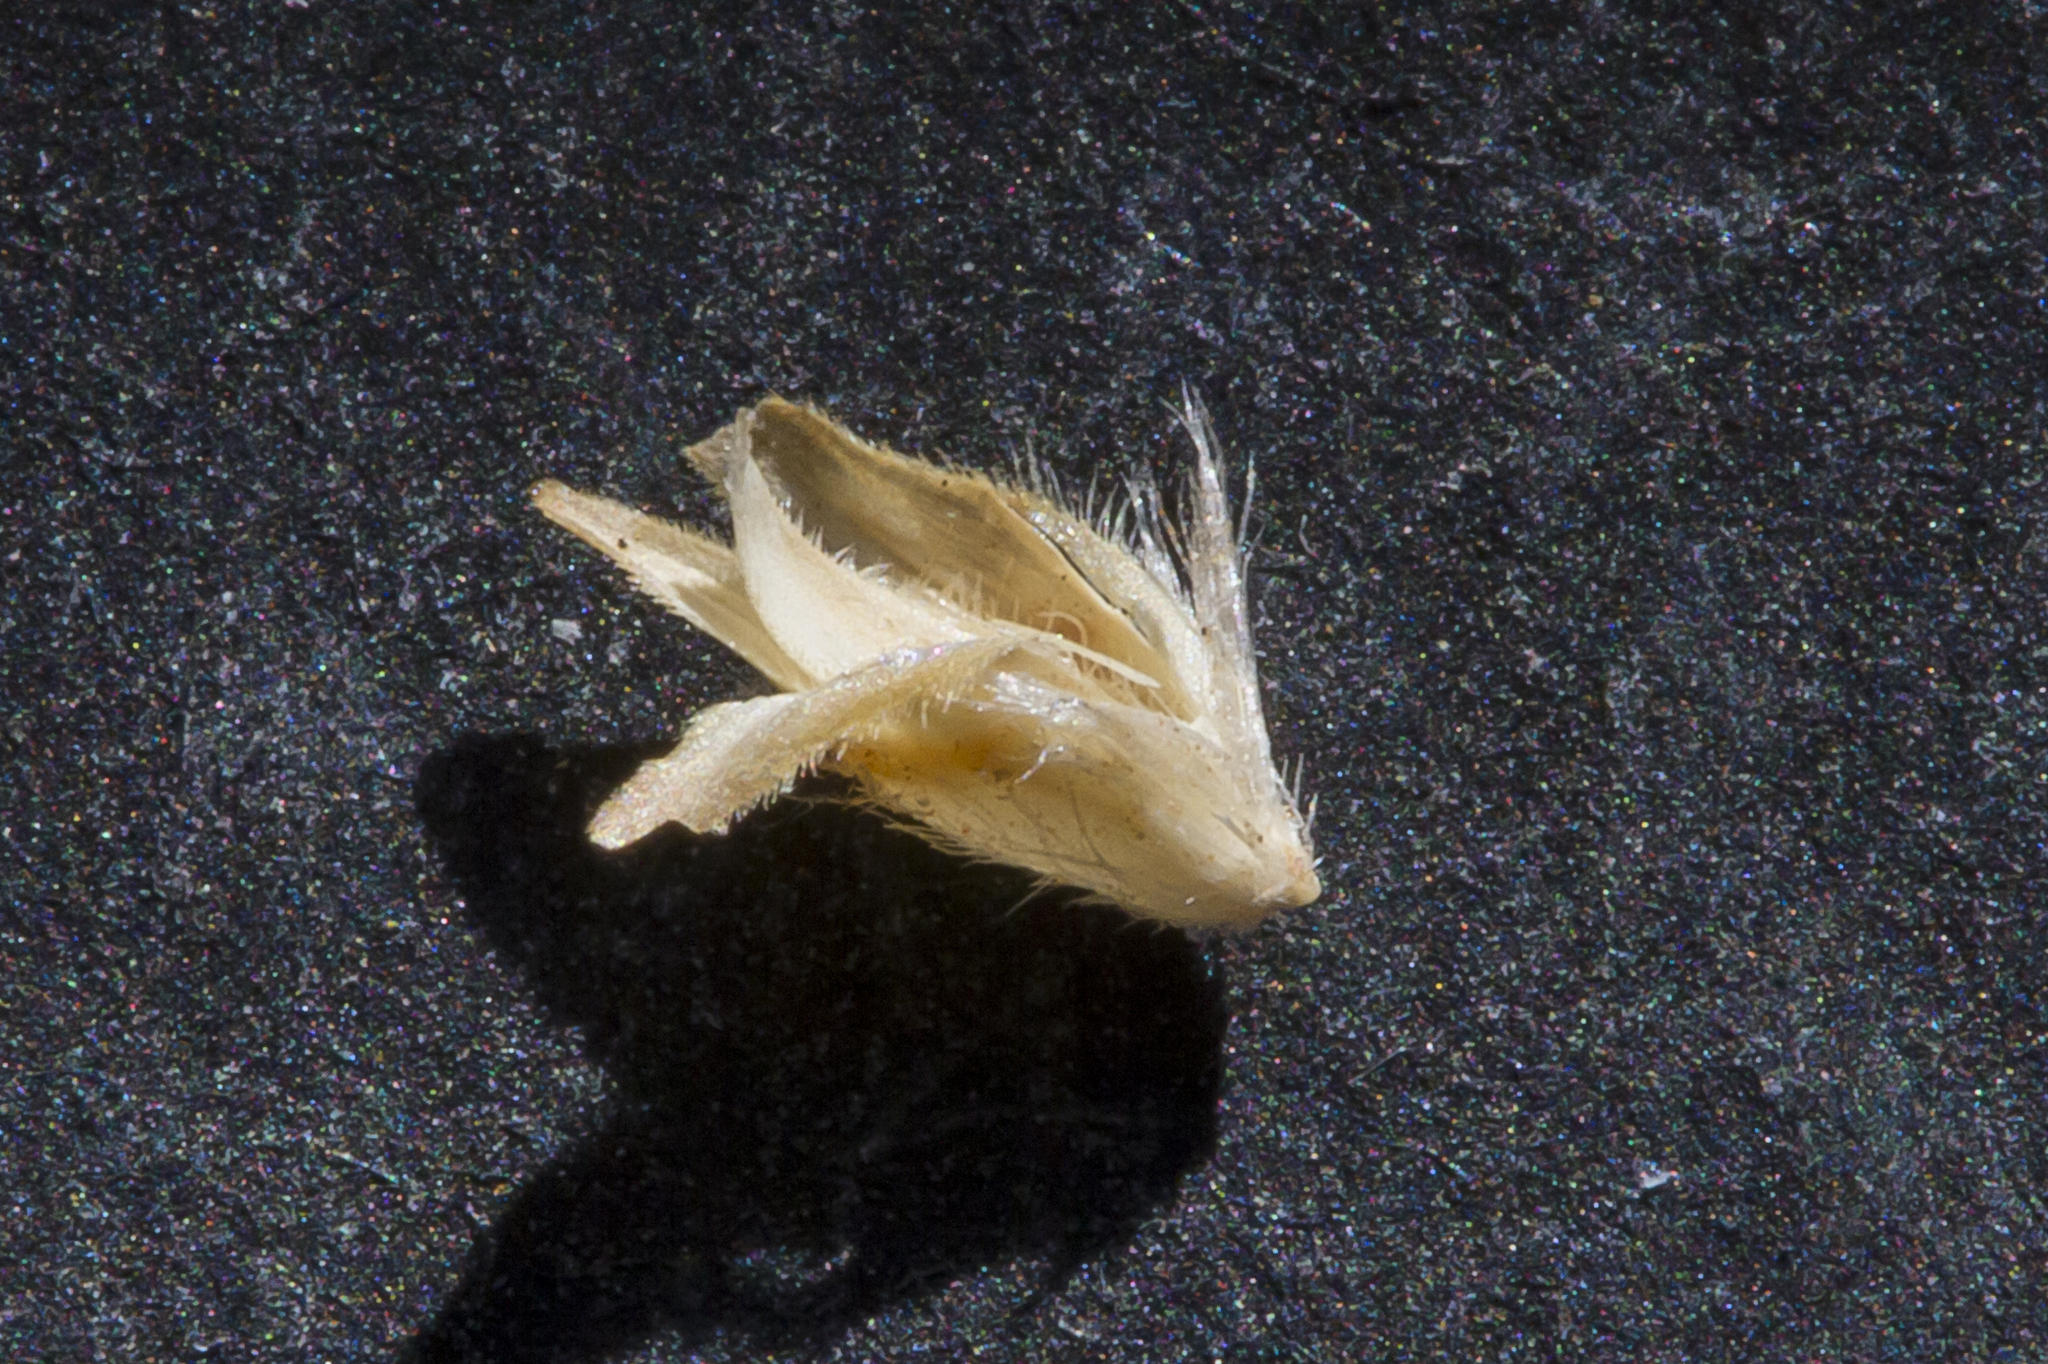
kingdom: Plantae
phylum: Tracheophyta
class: Liliopsida
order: Poales
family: Poaceae
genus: Triodia
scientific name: Triodia marginata
